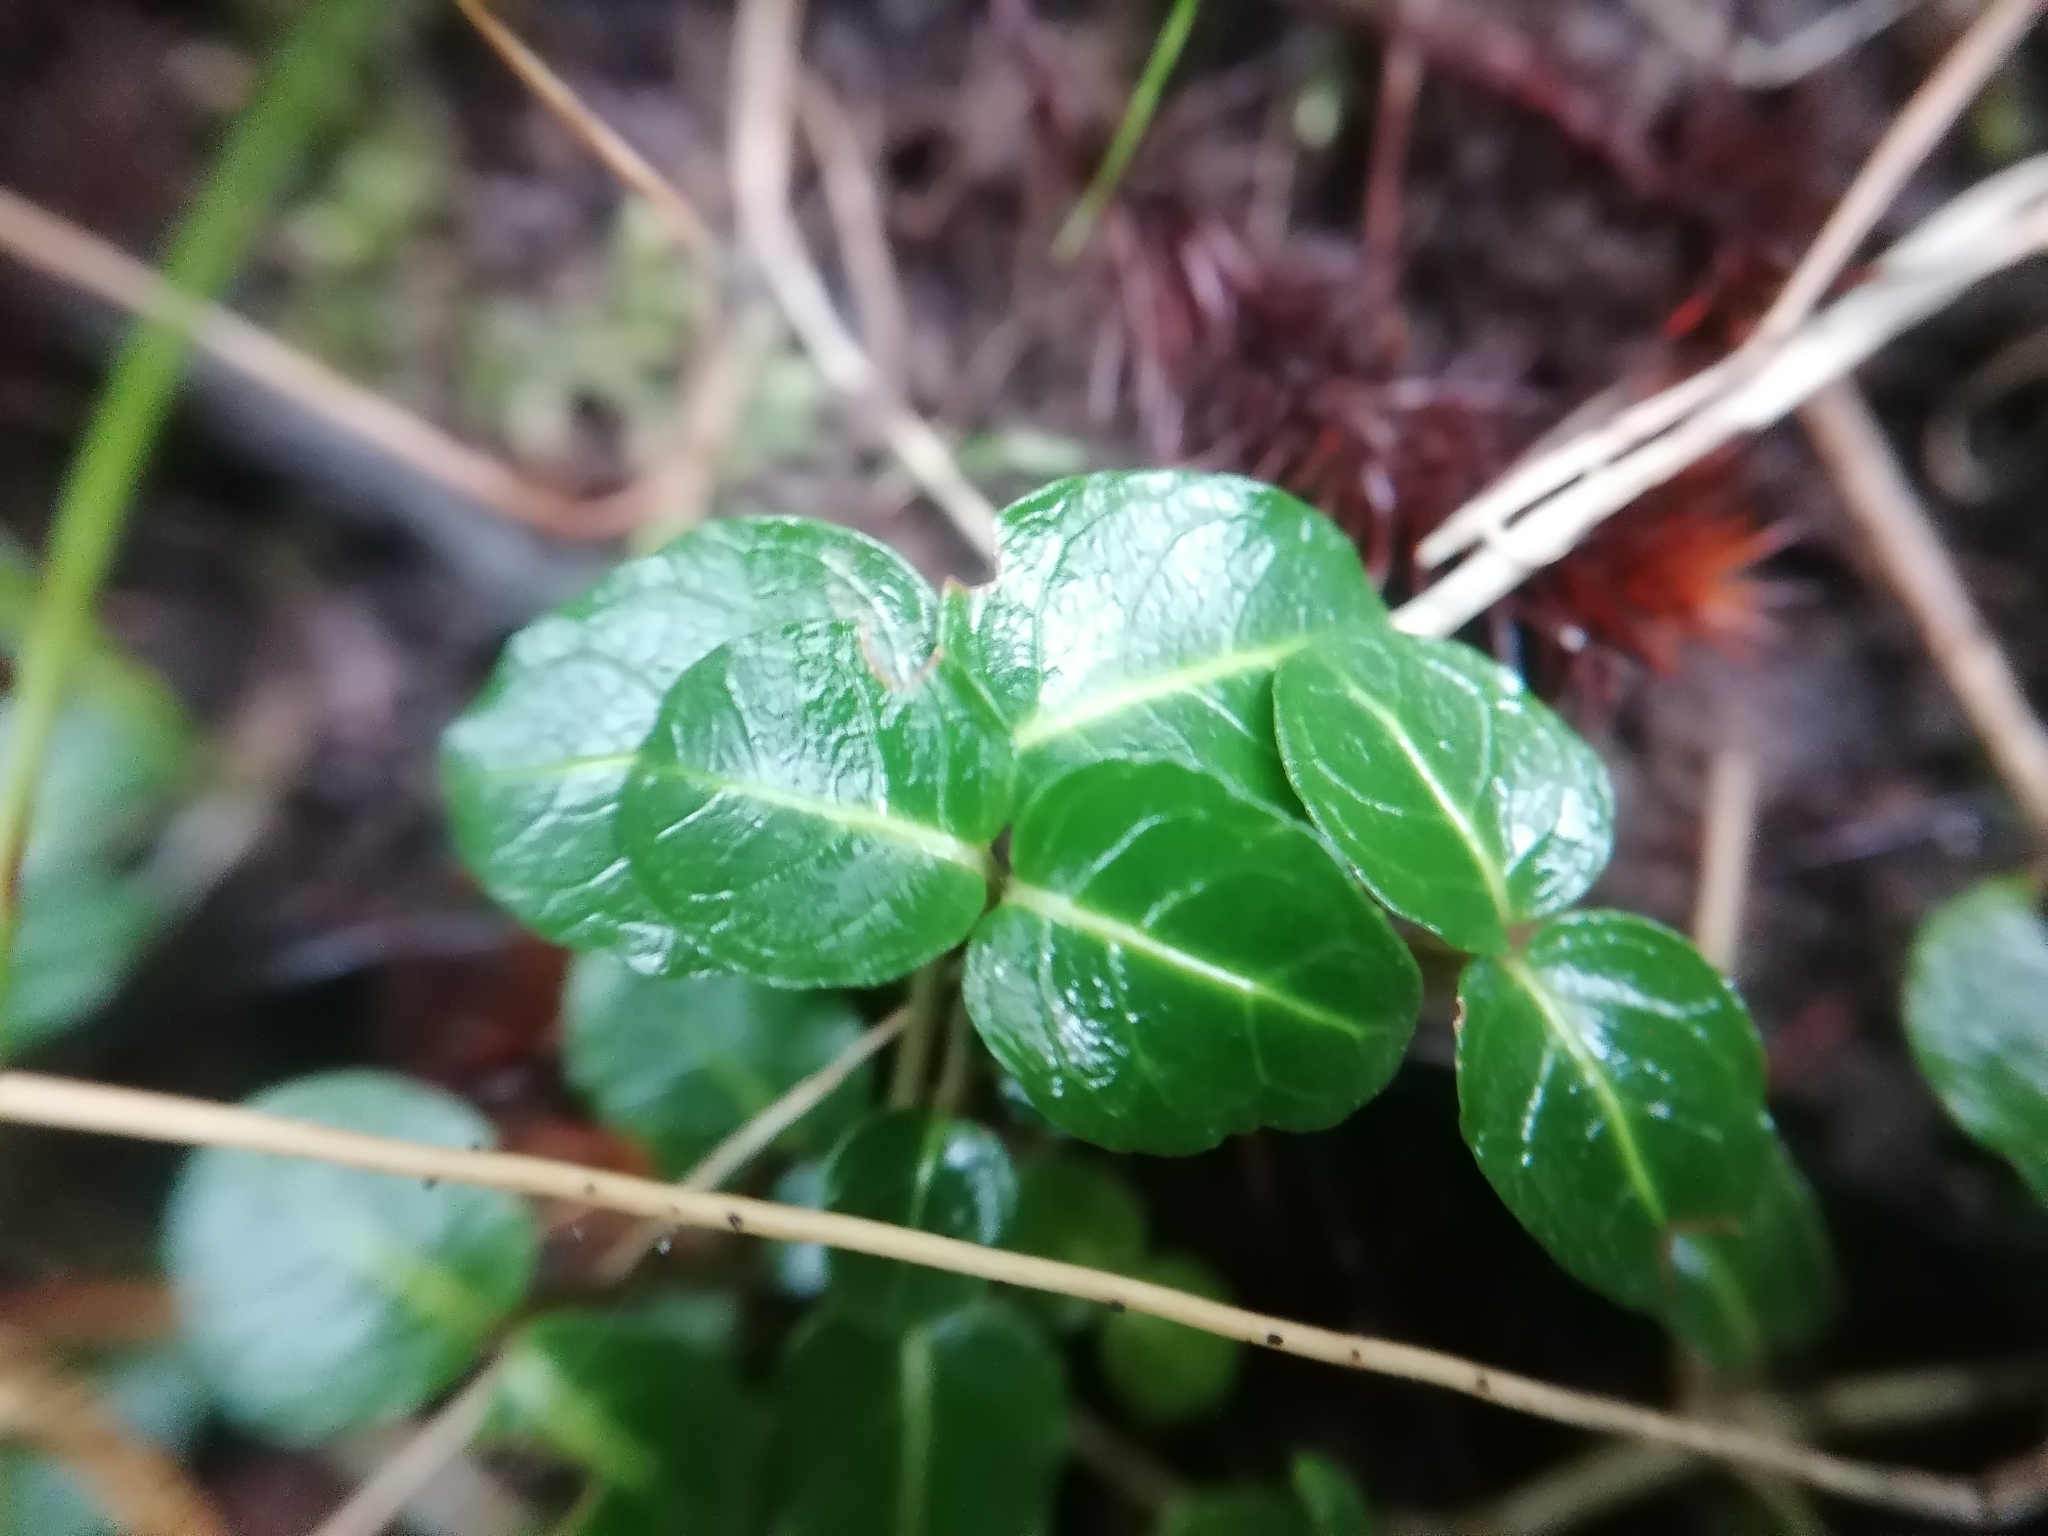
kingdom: Plantae
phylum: Tracheophyta
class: Magnoliopsida
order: Gentianales
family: Rubiaceae
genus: Mitchella
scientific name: Mitchella repens
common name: Partridge-berry
